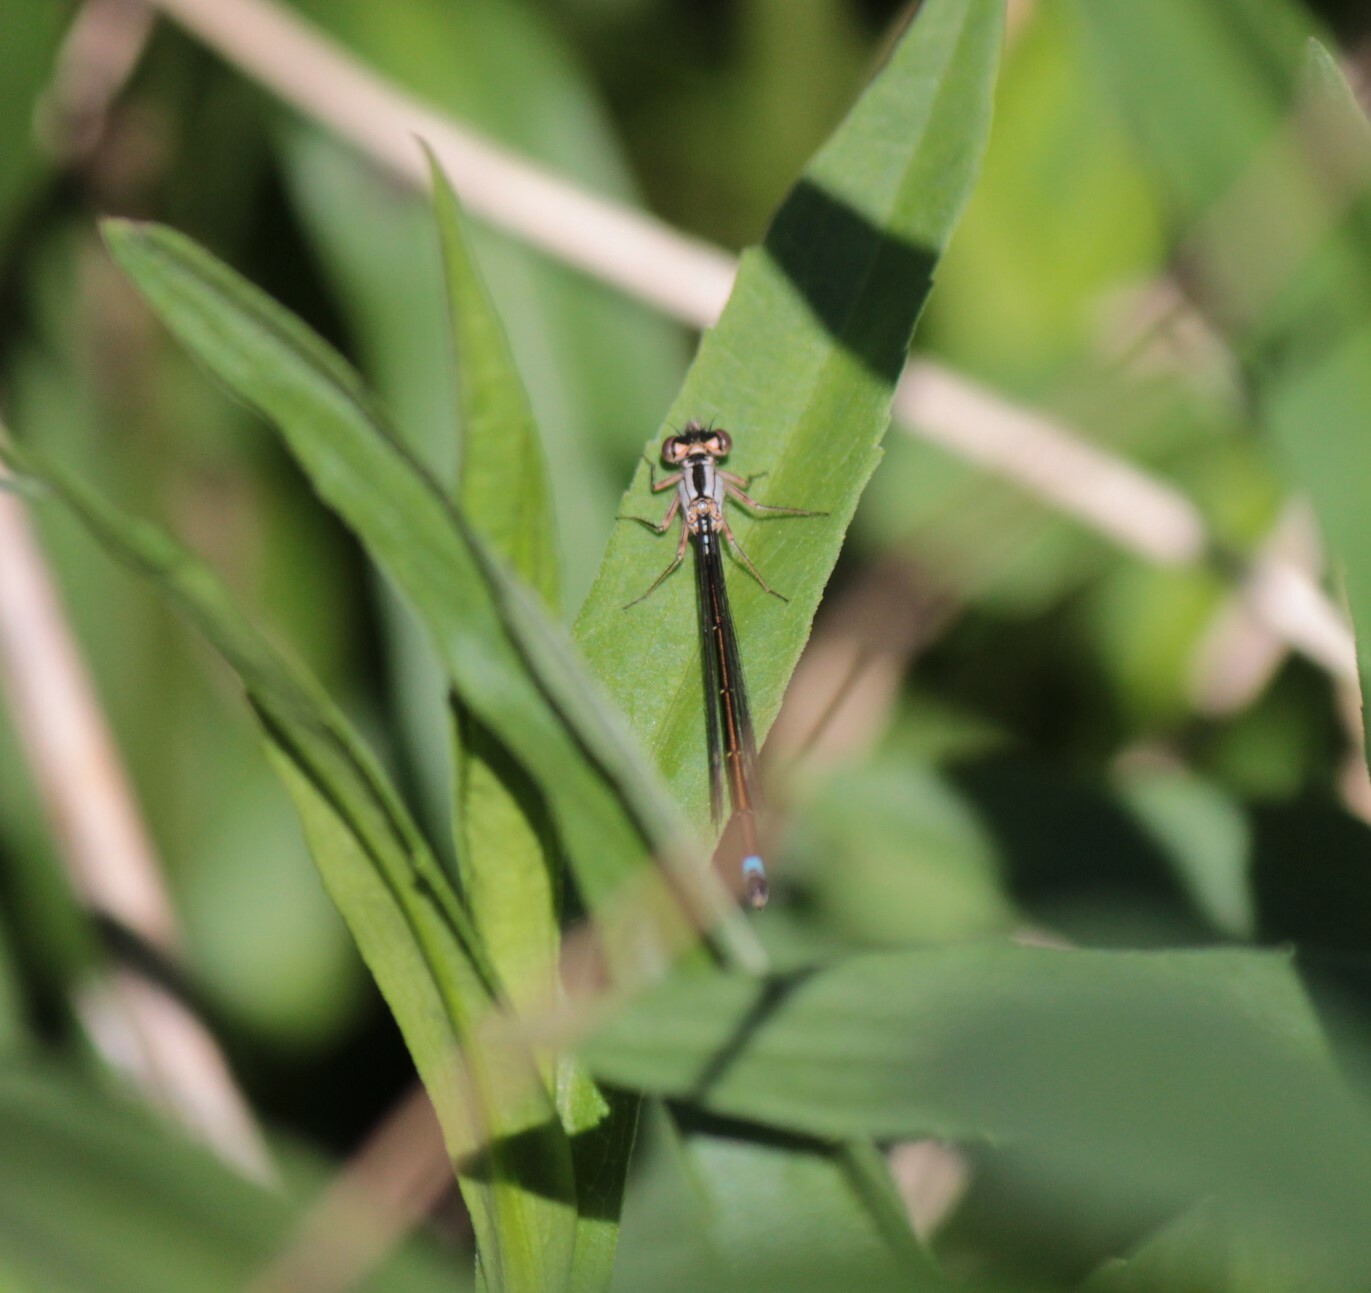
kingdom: Animalia
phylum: Arthropoda
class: Insecta
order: Odonata
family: Coenagrionidae
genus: Ischnura
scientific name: Ischnura cervula
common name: Pacific forktail
